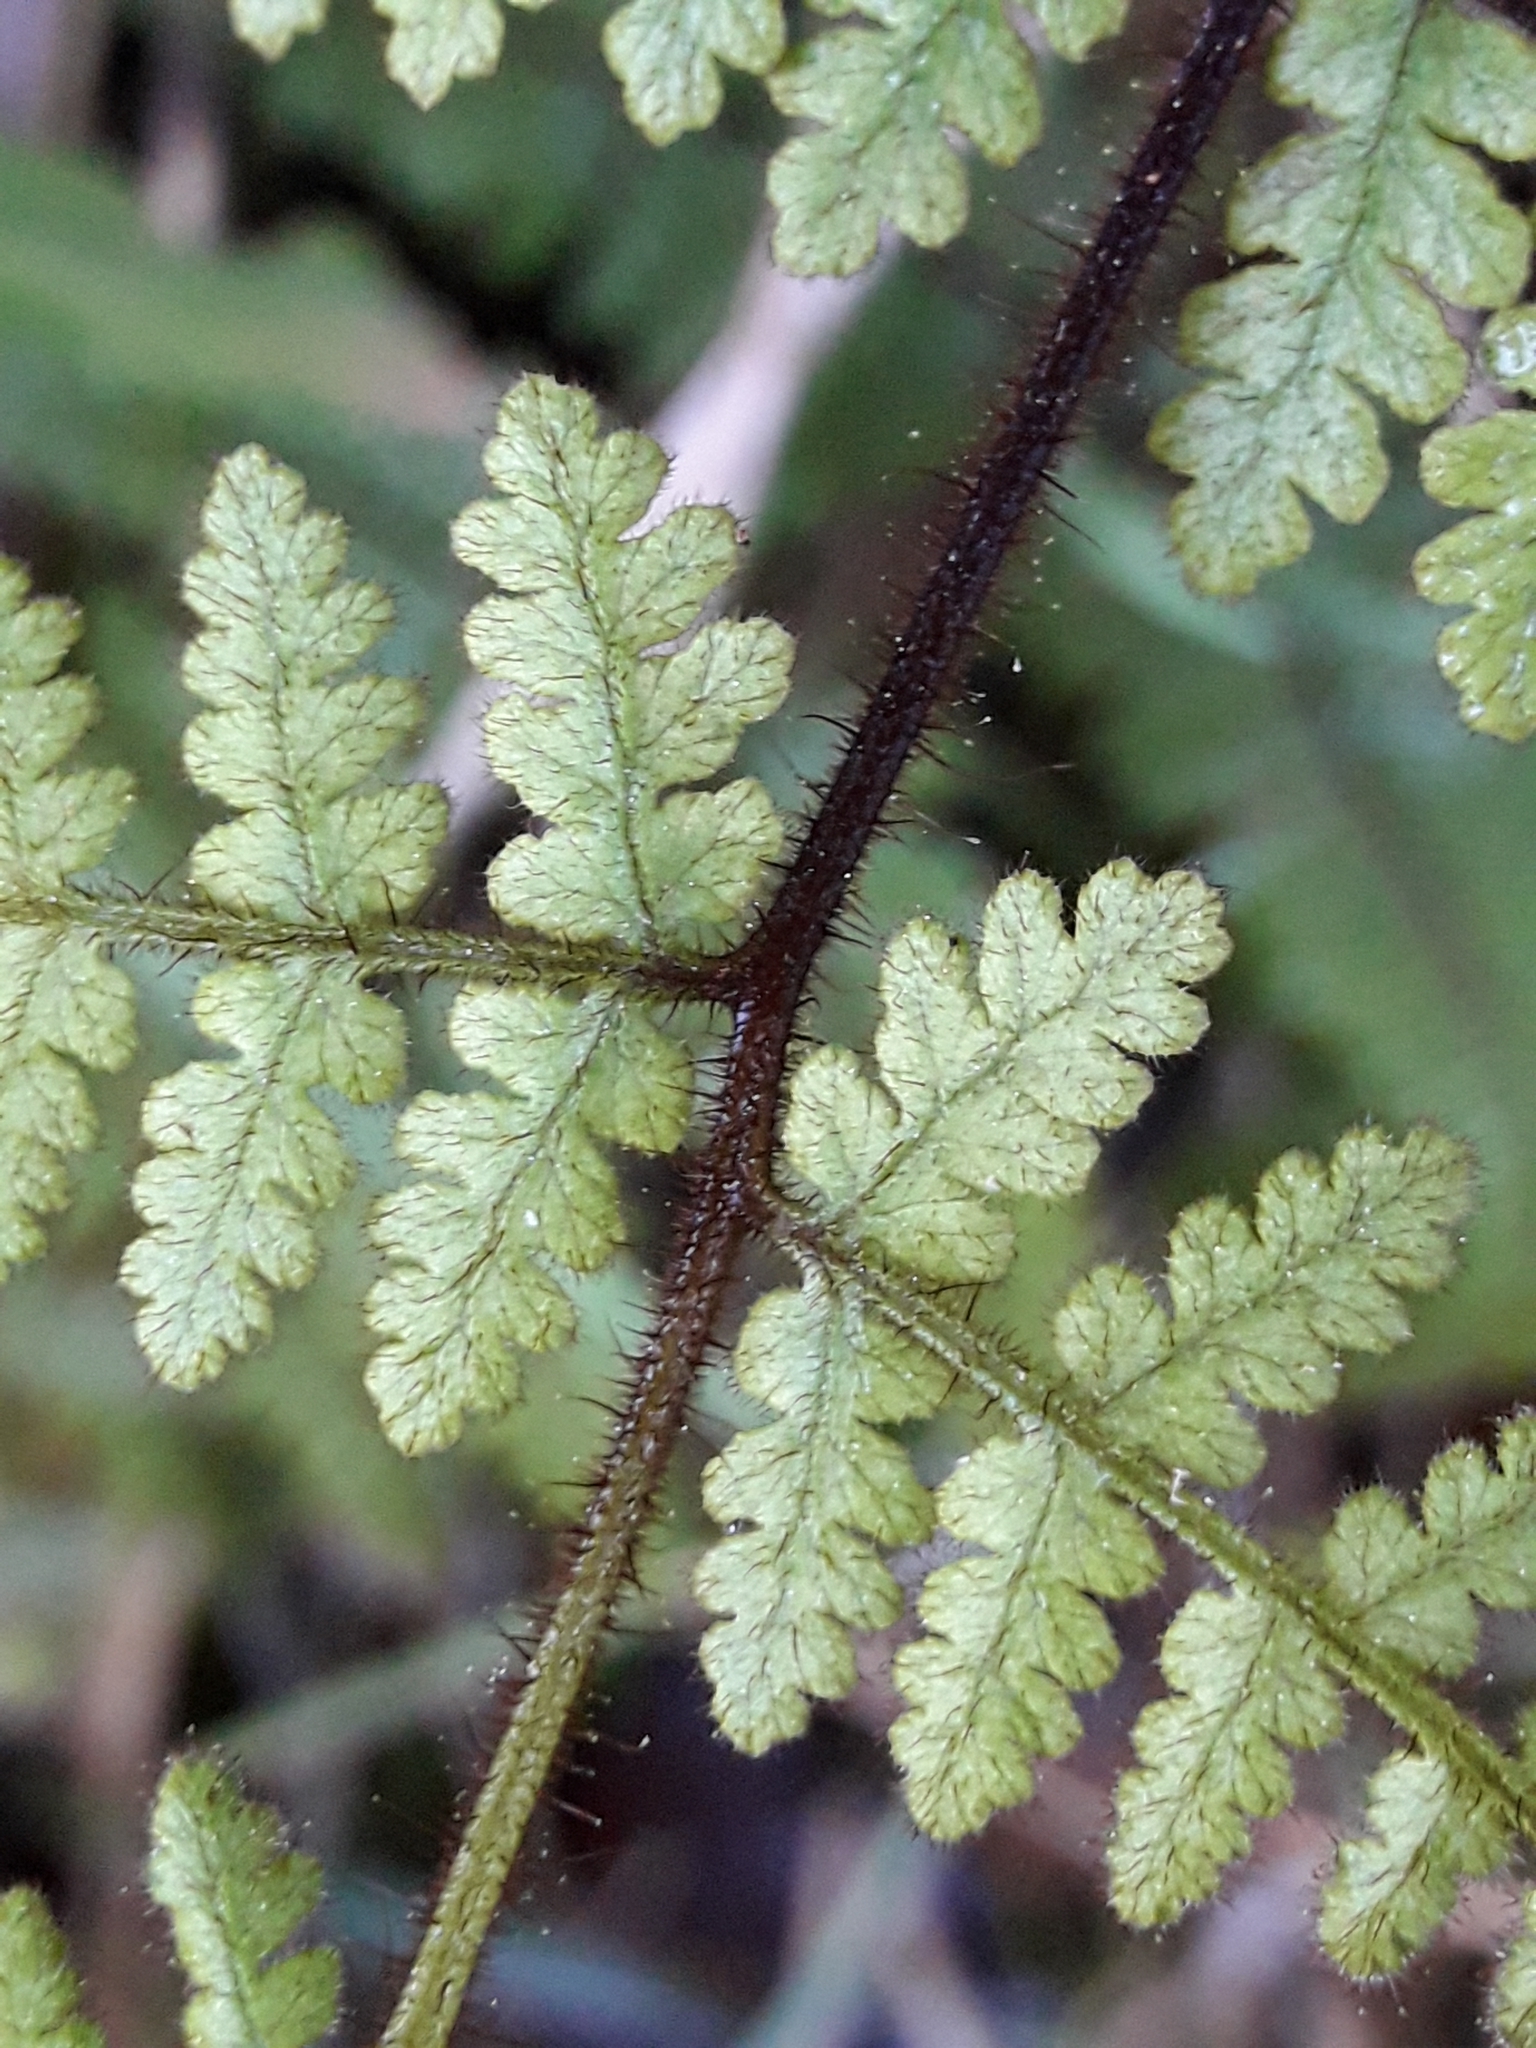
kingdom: Plantae
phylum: Tracheophyta
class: Polypodiopsida
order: Polypodiales
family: Dennstaedtiaceae
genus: Hypolepis
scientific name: Hypolepis rugosula
